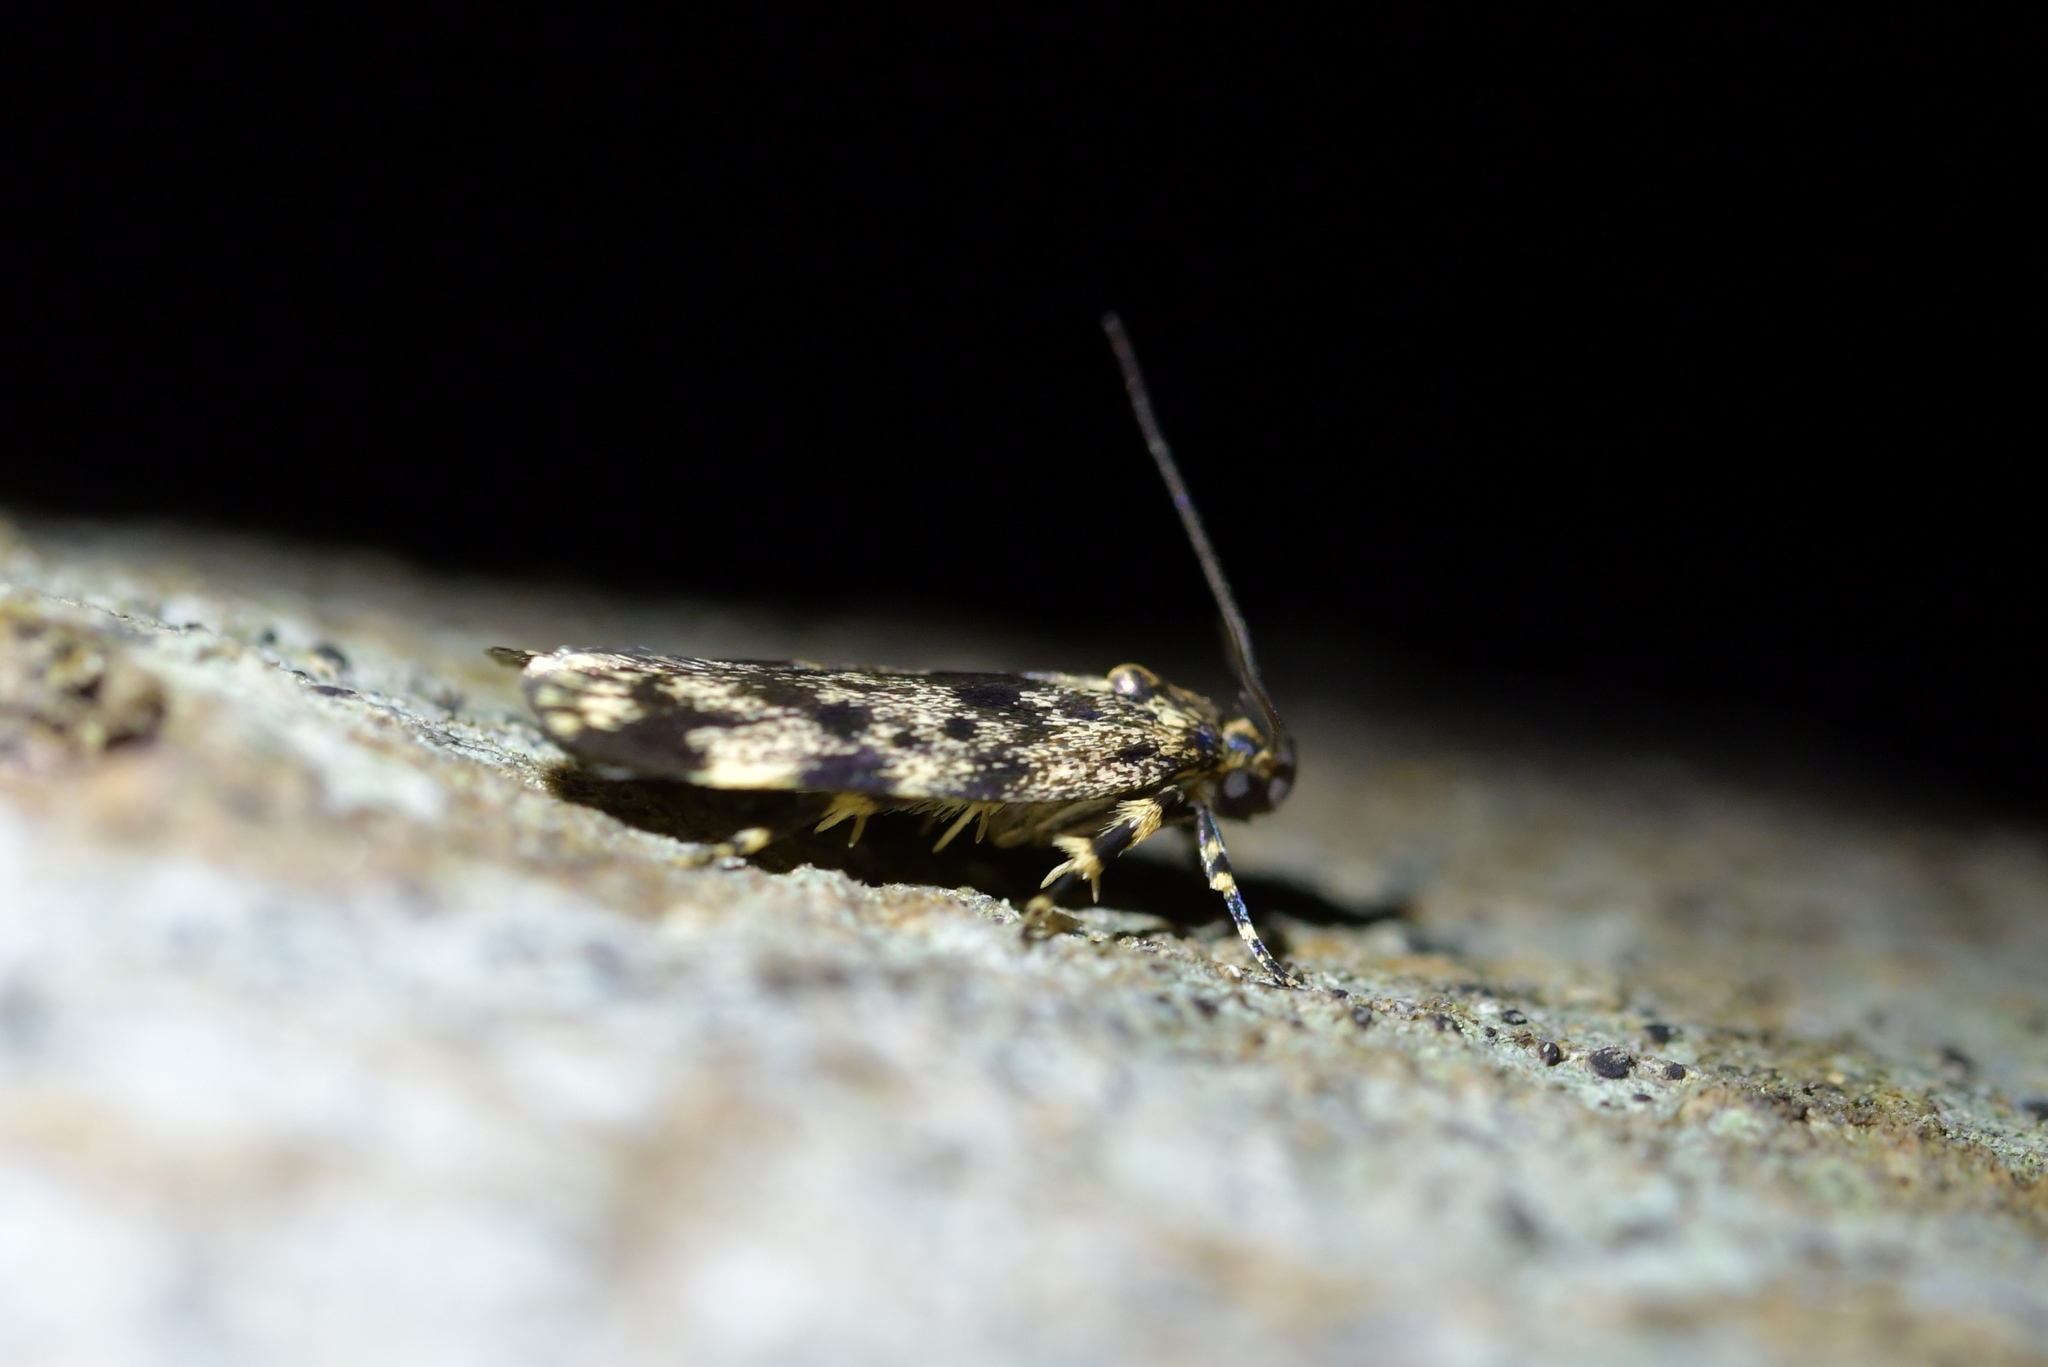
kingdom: Animalia
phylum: Arthropoda
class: Insecta
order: Lepidoptera
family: Oecophoridae
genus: Barea
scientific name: Barea codrella
